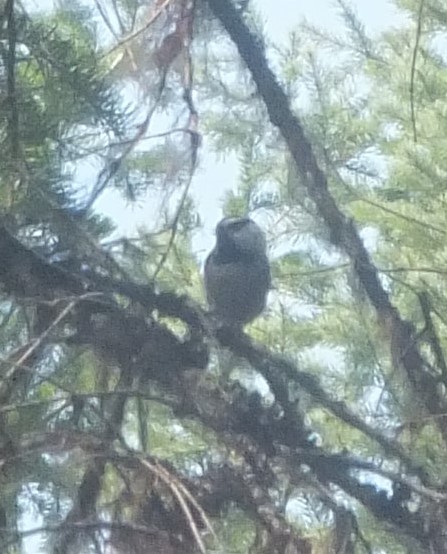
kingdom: Animalia
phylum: Chordata
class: Aves
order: Passeriformes
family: Paridae
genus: Poecile
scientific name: Poecile gambeli
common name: Mountain chickadee
